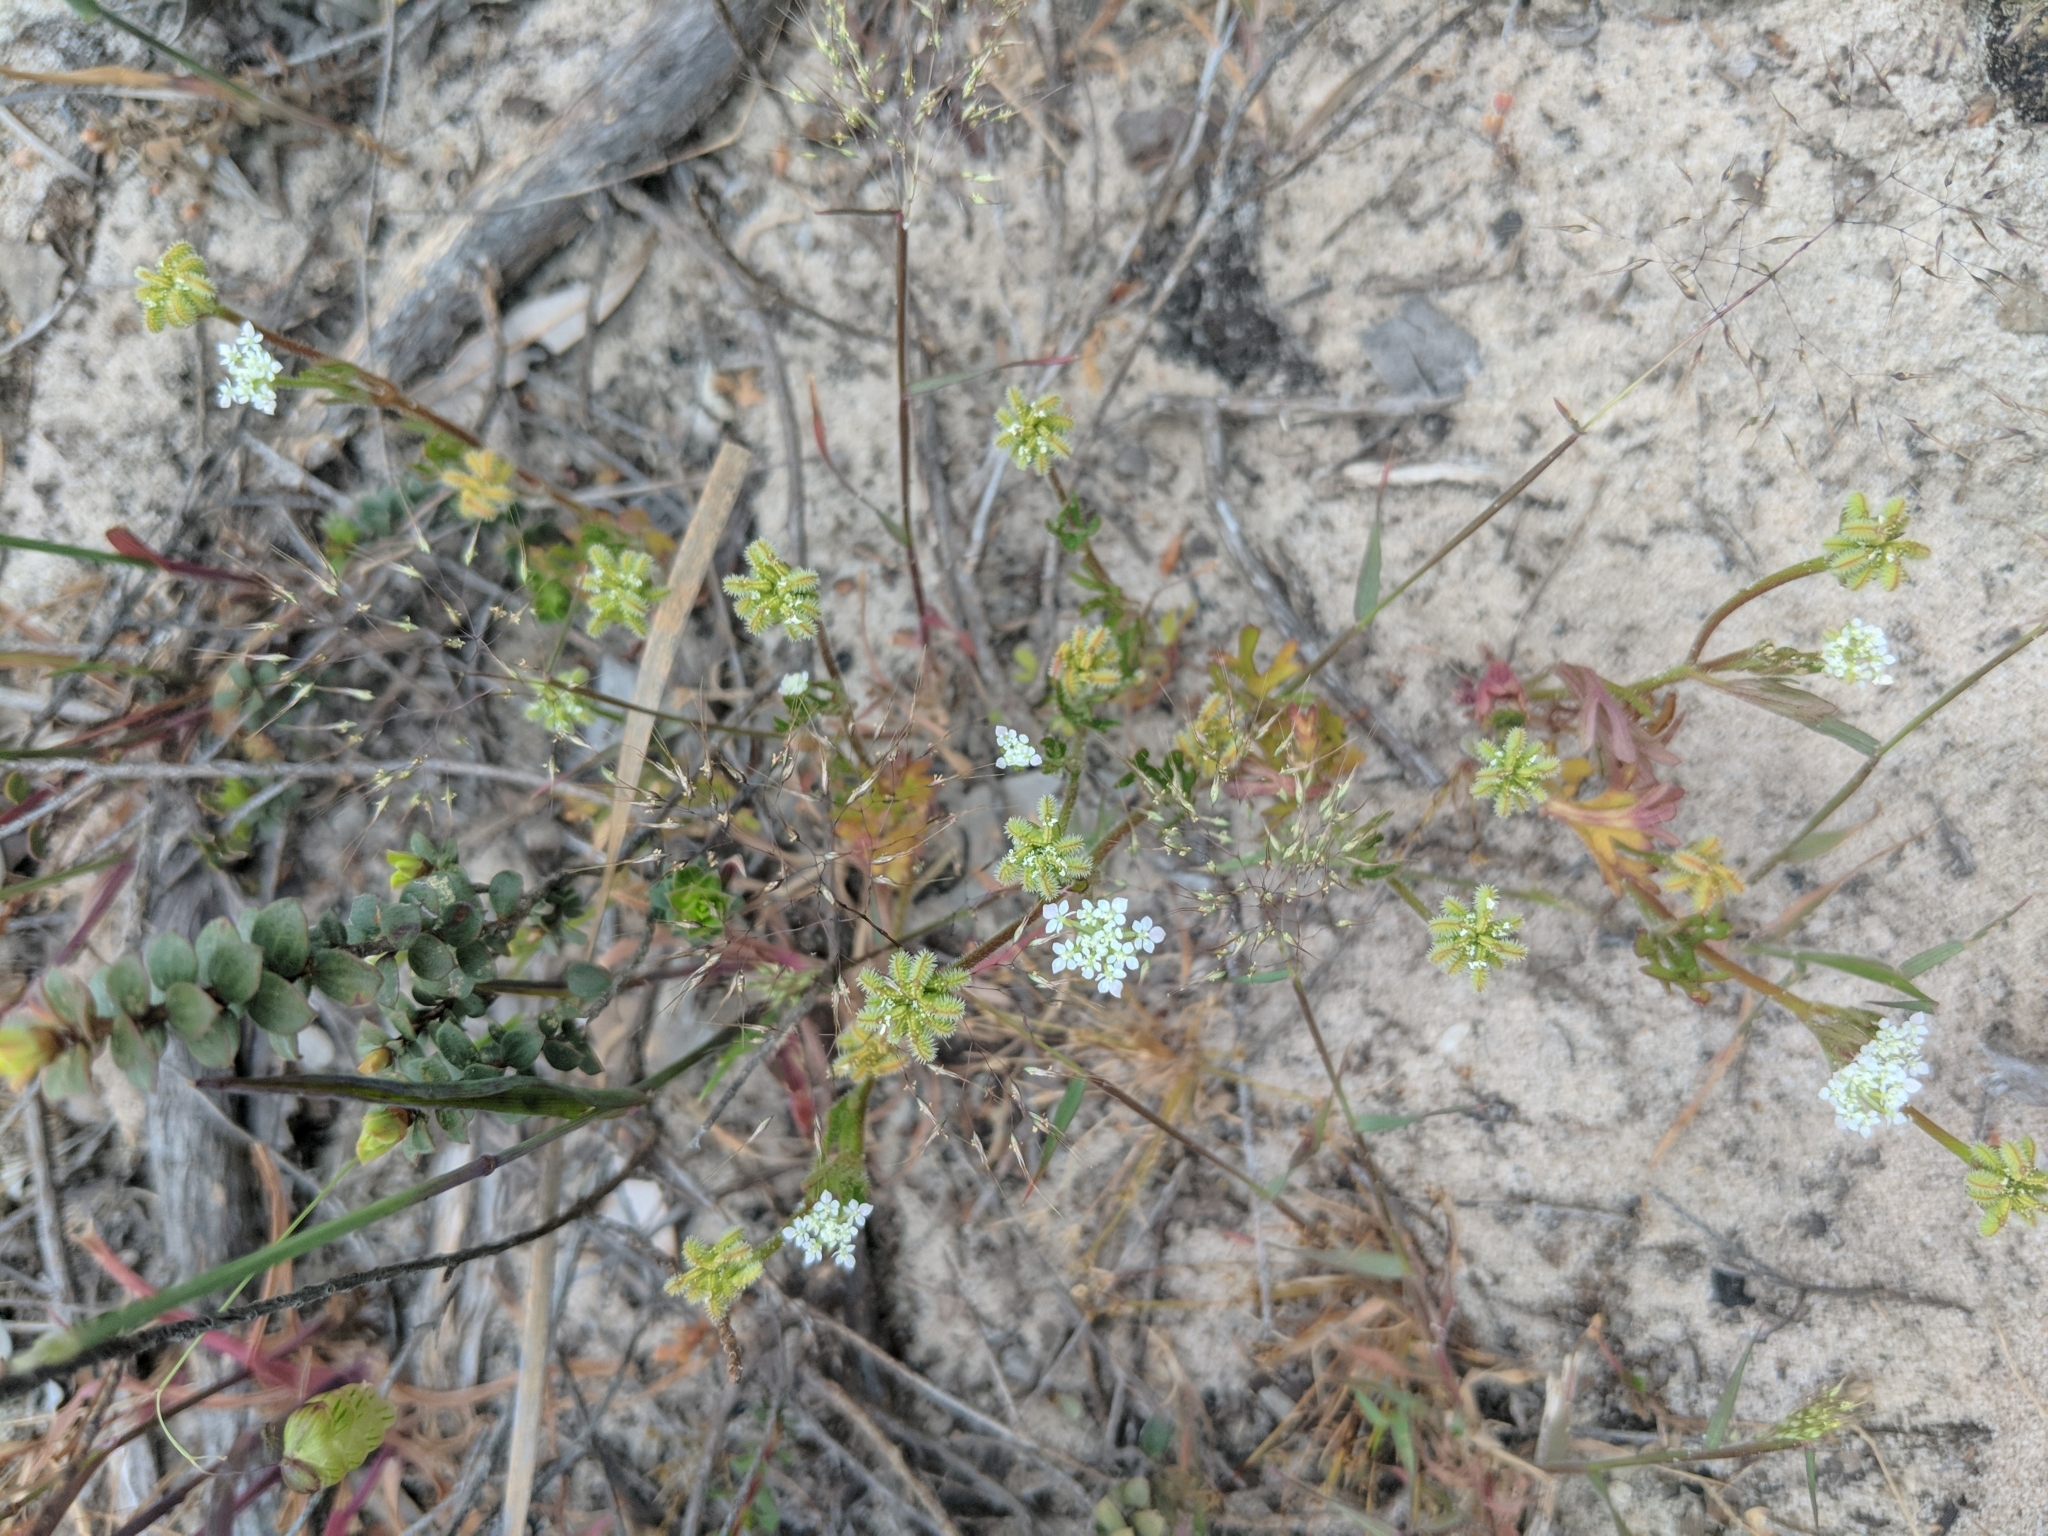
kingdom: Plantae
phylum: Tracheophyta
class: Magnoliopsida
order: Apiales
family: Araliaceae
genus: Trachymene
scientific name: Trachymene pilosa
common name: Dwarf trachymene
